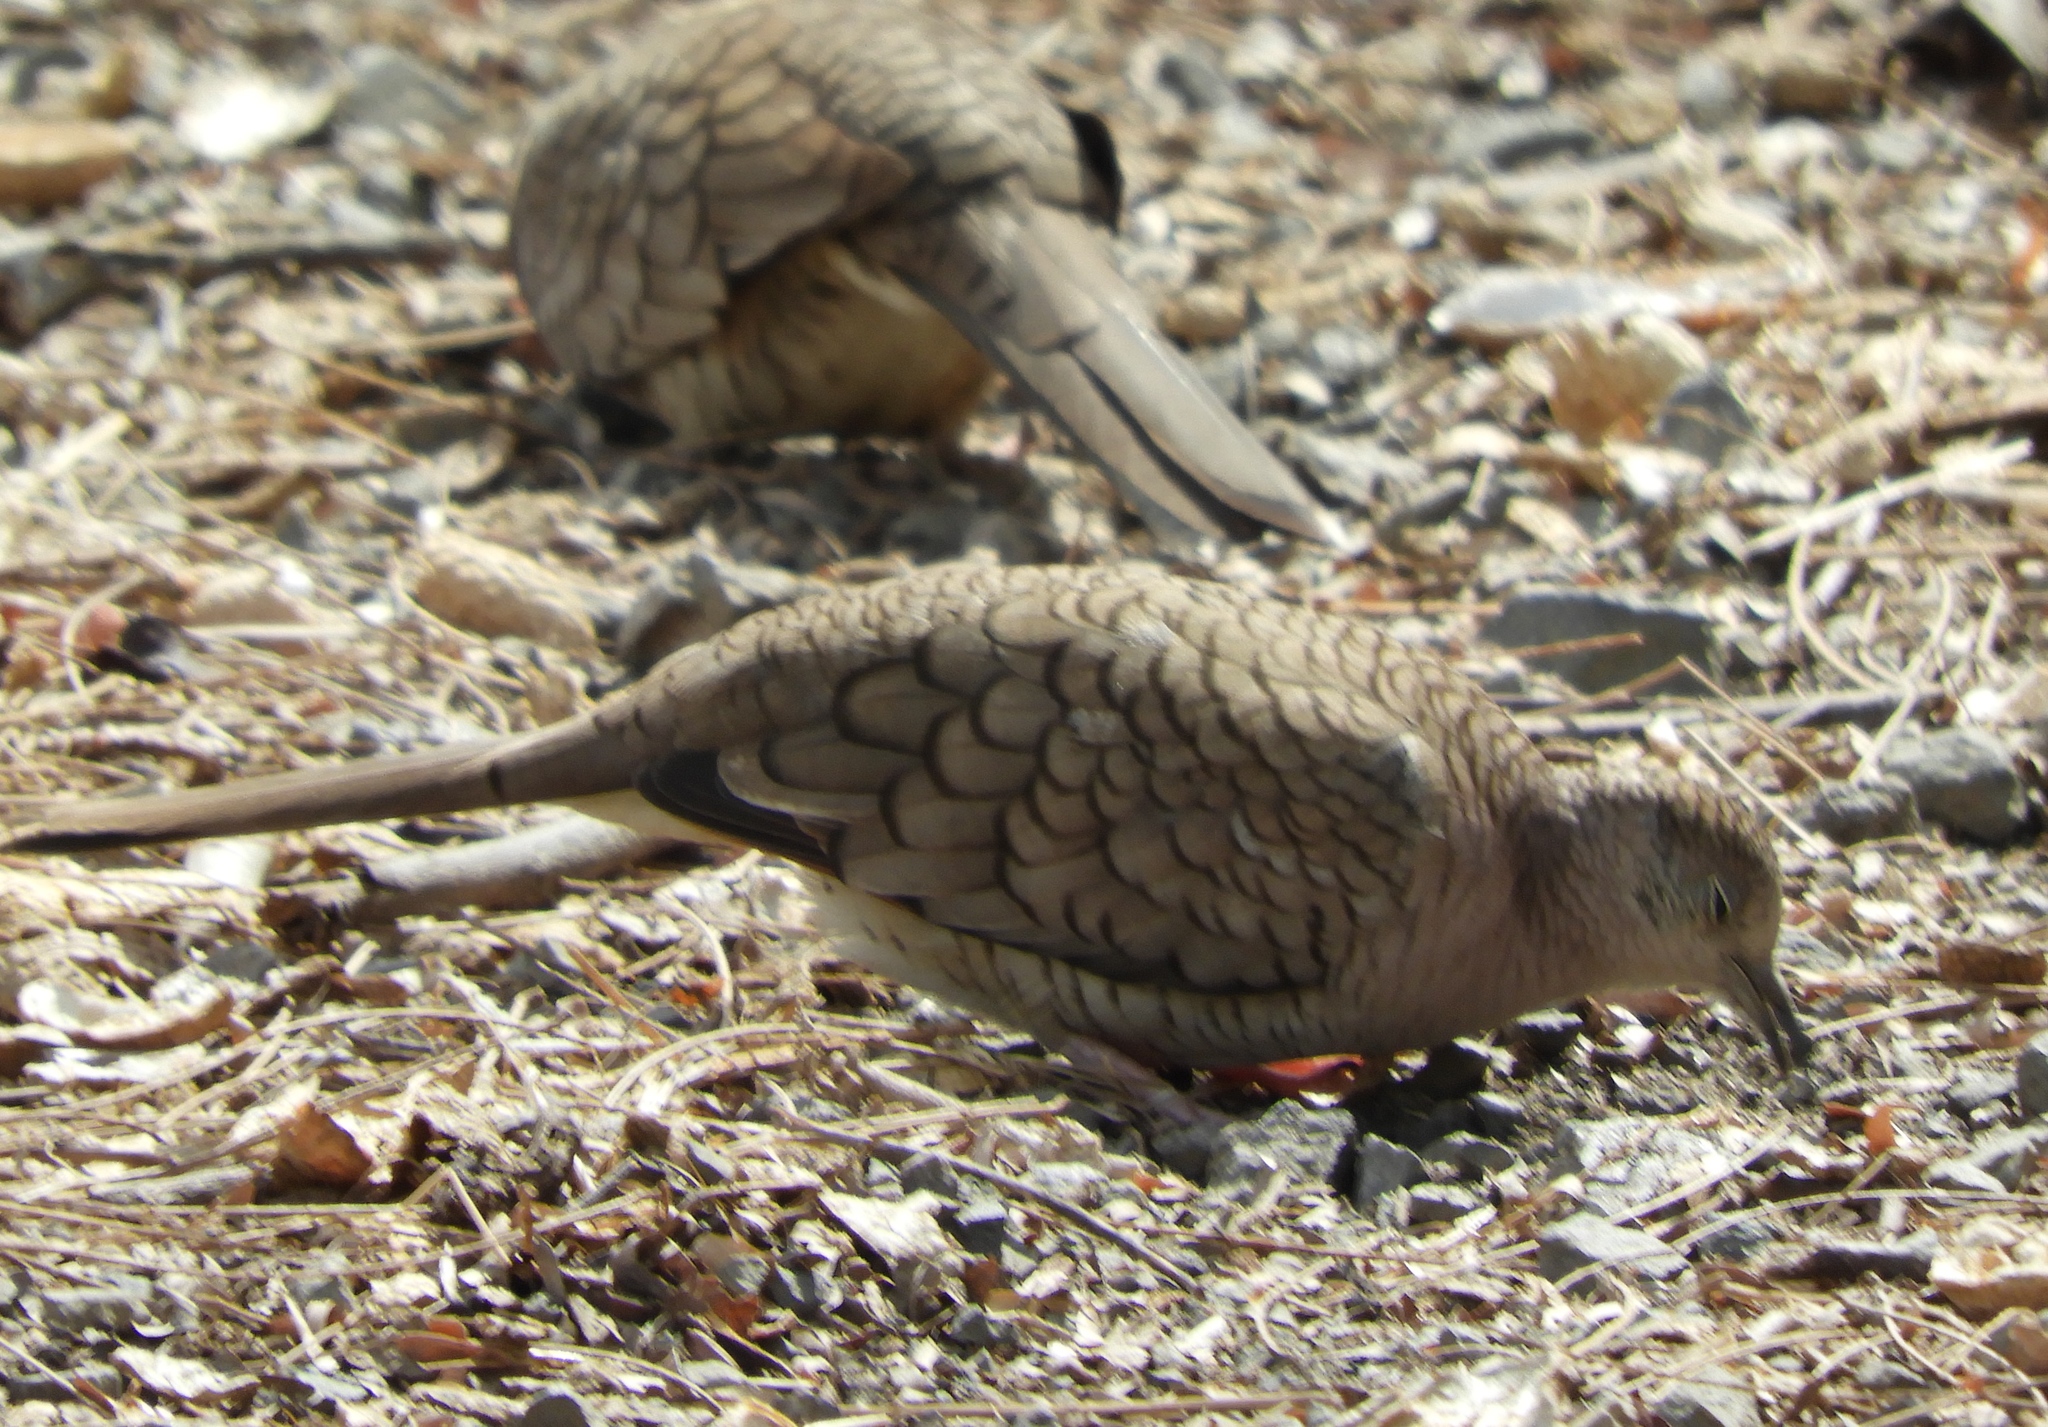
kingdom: Animalia
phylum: Chordata
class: Aves
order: Columbiformes
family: Columbidae
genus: Columbina
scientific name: Columbina inca
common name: Inca dove
